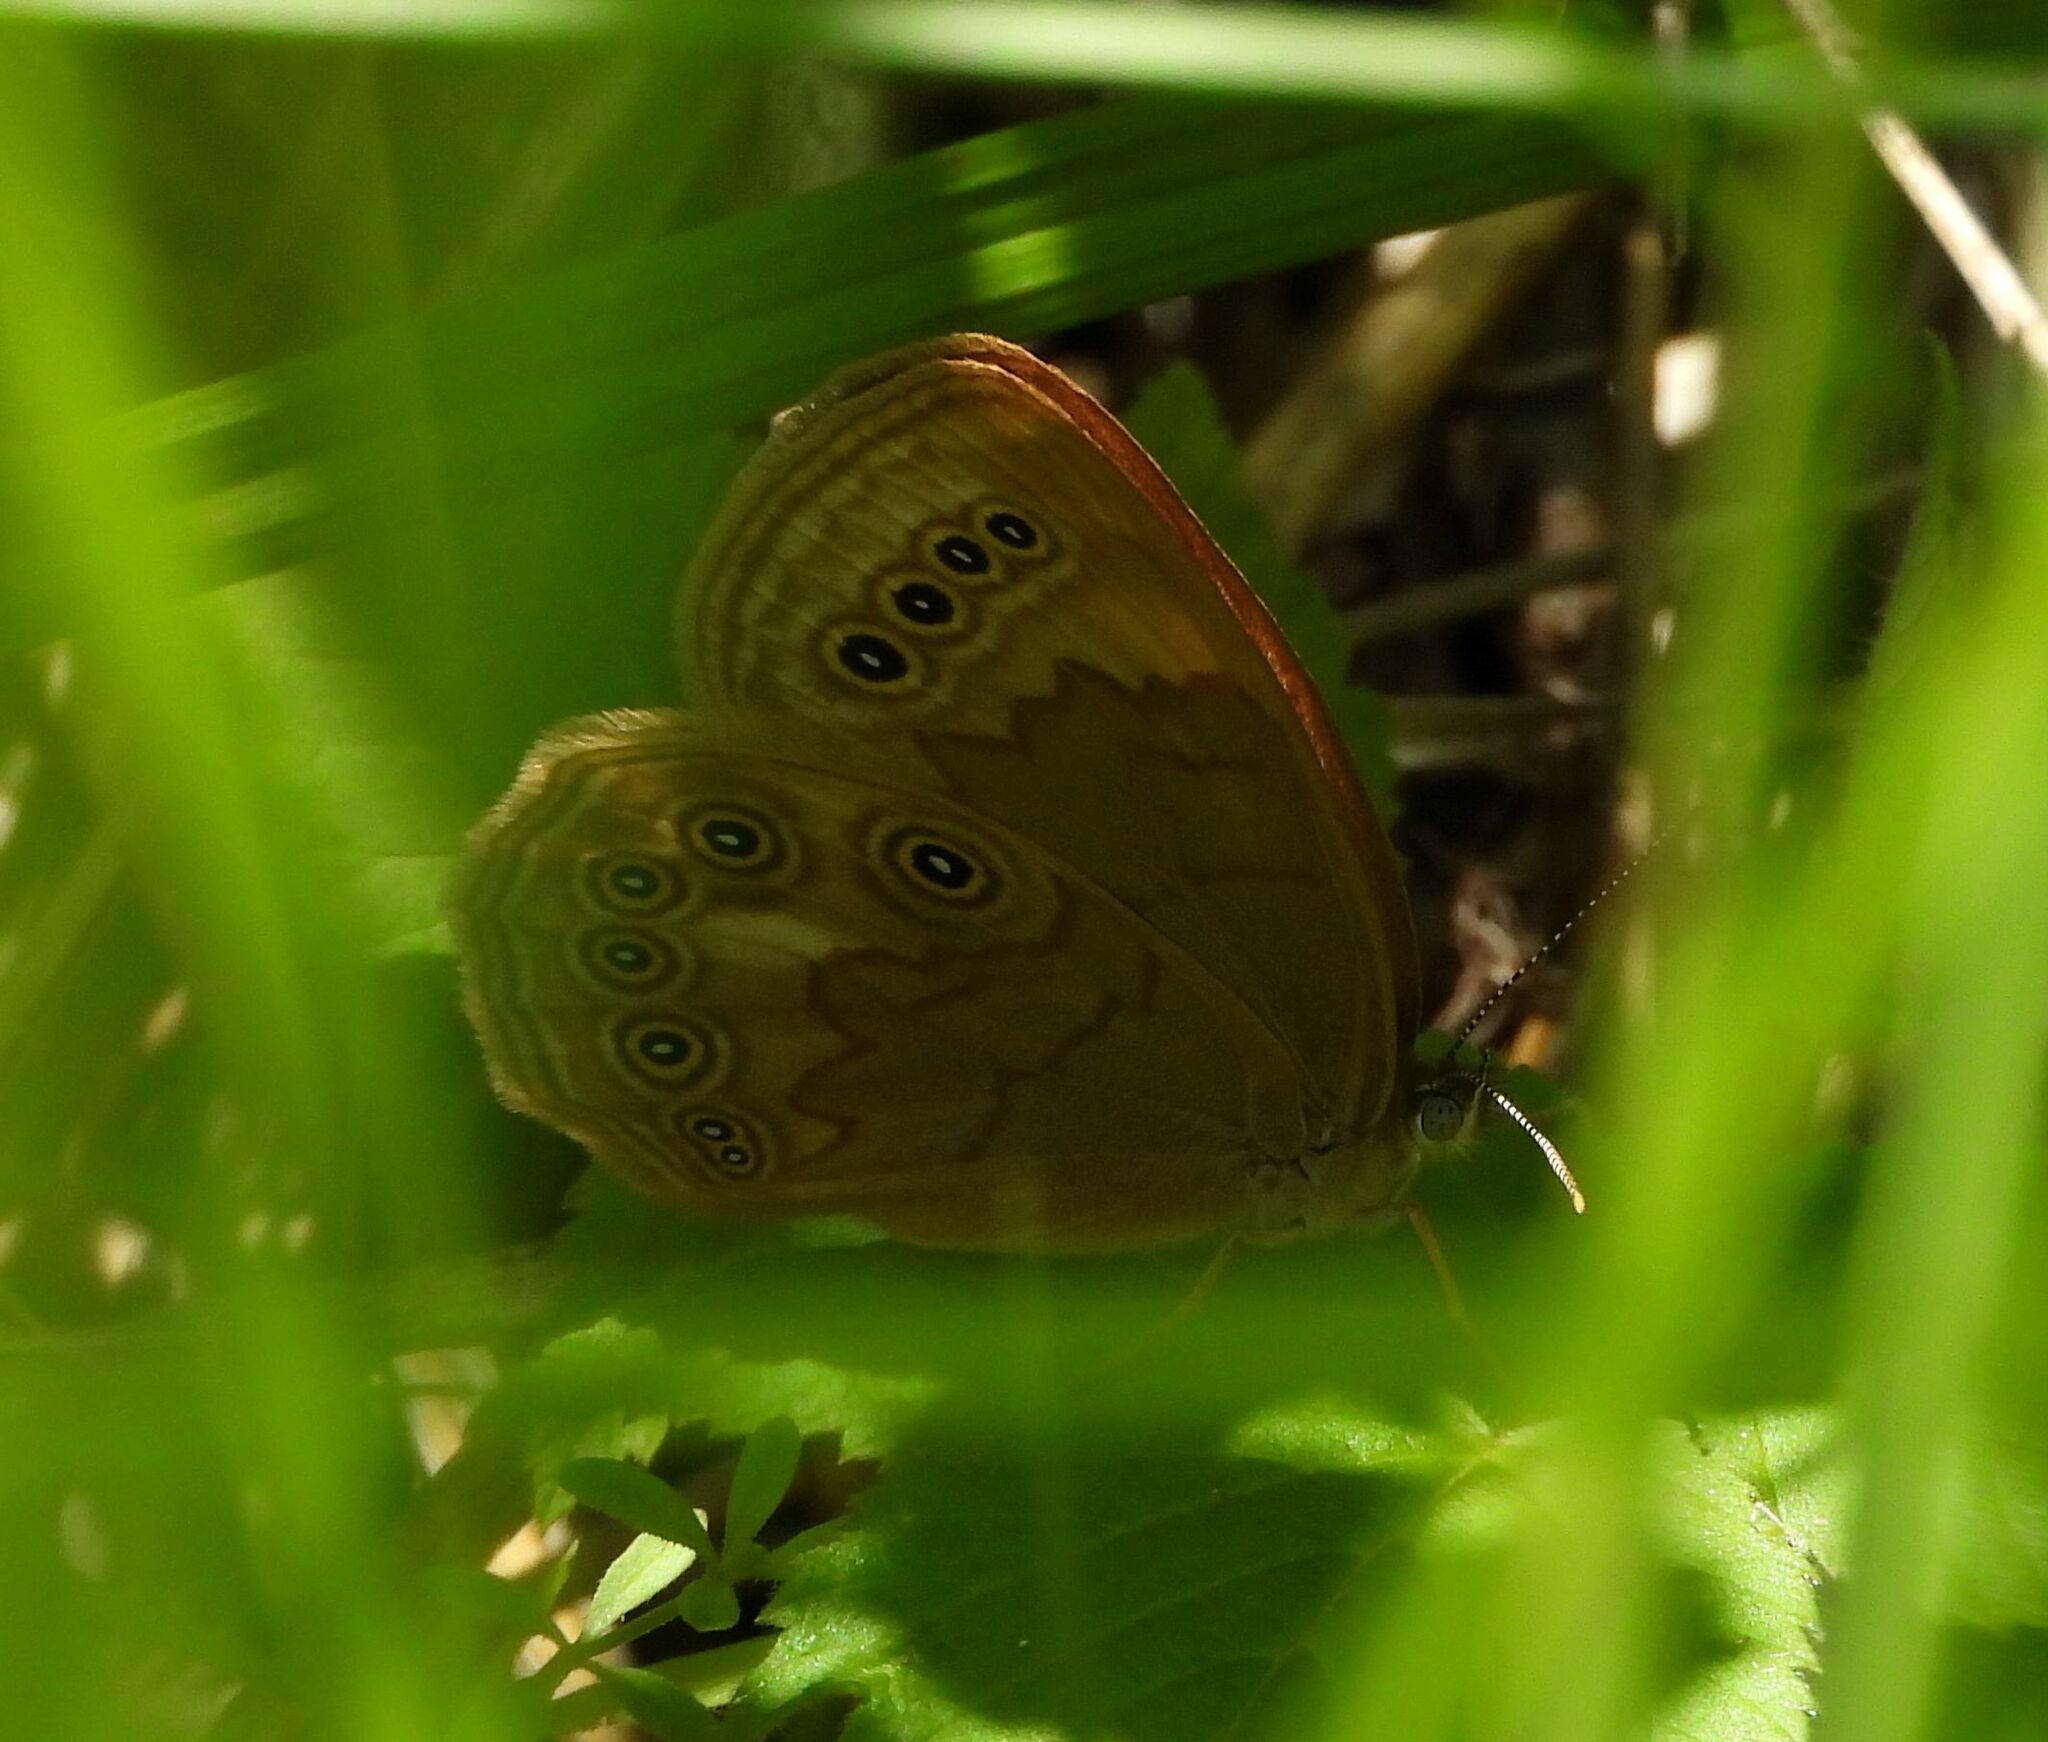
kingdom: Animalia
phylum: Arthropoda
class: Insecta
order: Lepidoptera
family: Nymphalidae
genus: Lethe
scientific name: Lethe eurydice
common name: Eyed brown
